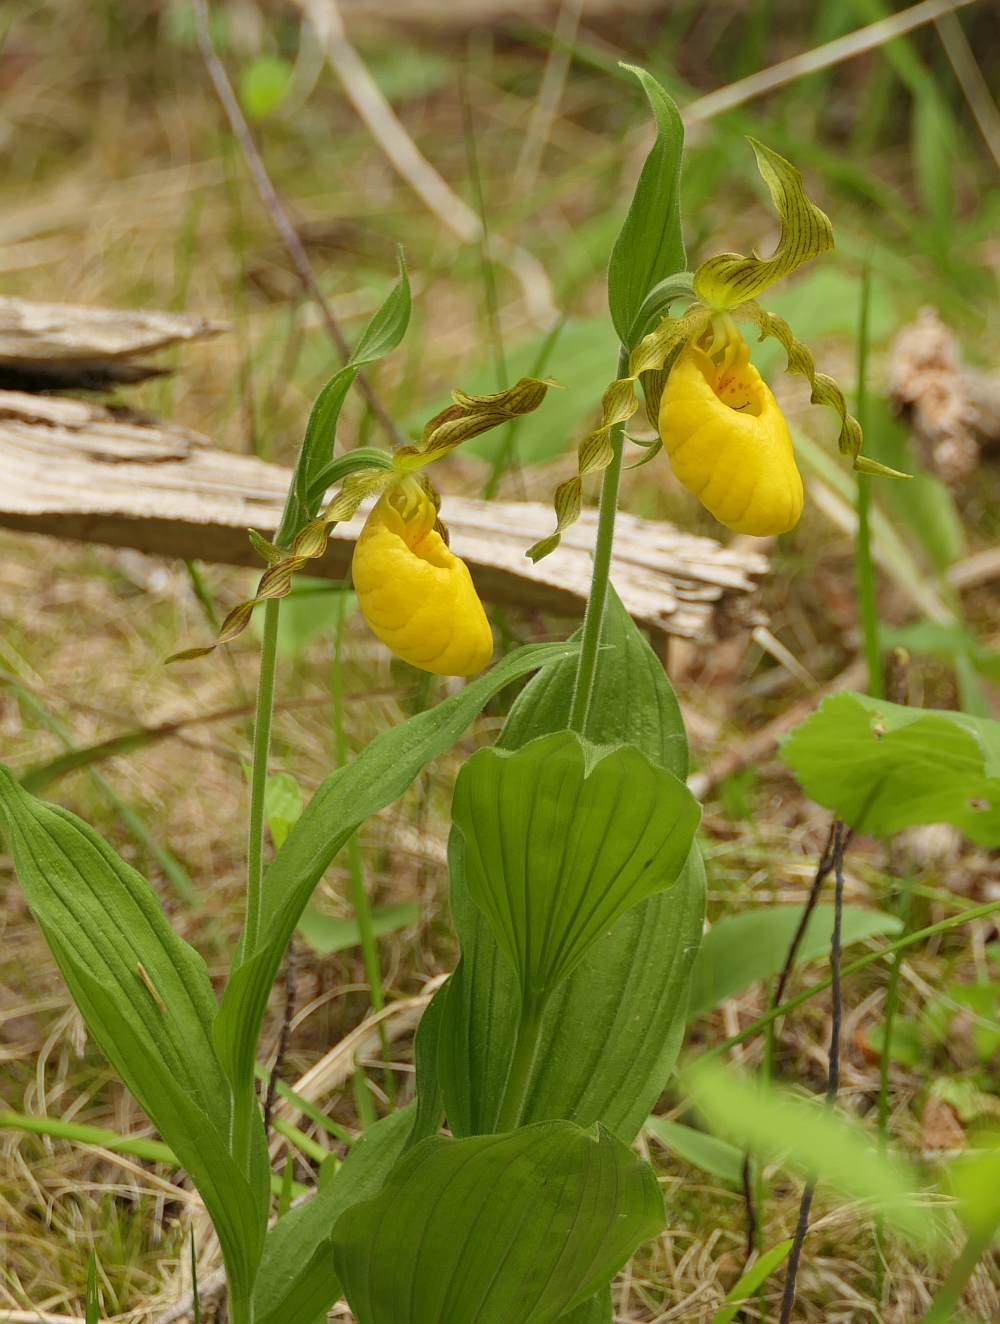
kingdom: Plantae
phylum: Tracheophyta
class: Liliopsida
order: Asparagales
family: Orchidaceae
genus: Cypripedium
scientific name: Cypripedium parviflorum
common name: American yellow lady's-slipper
